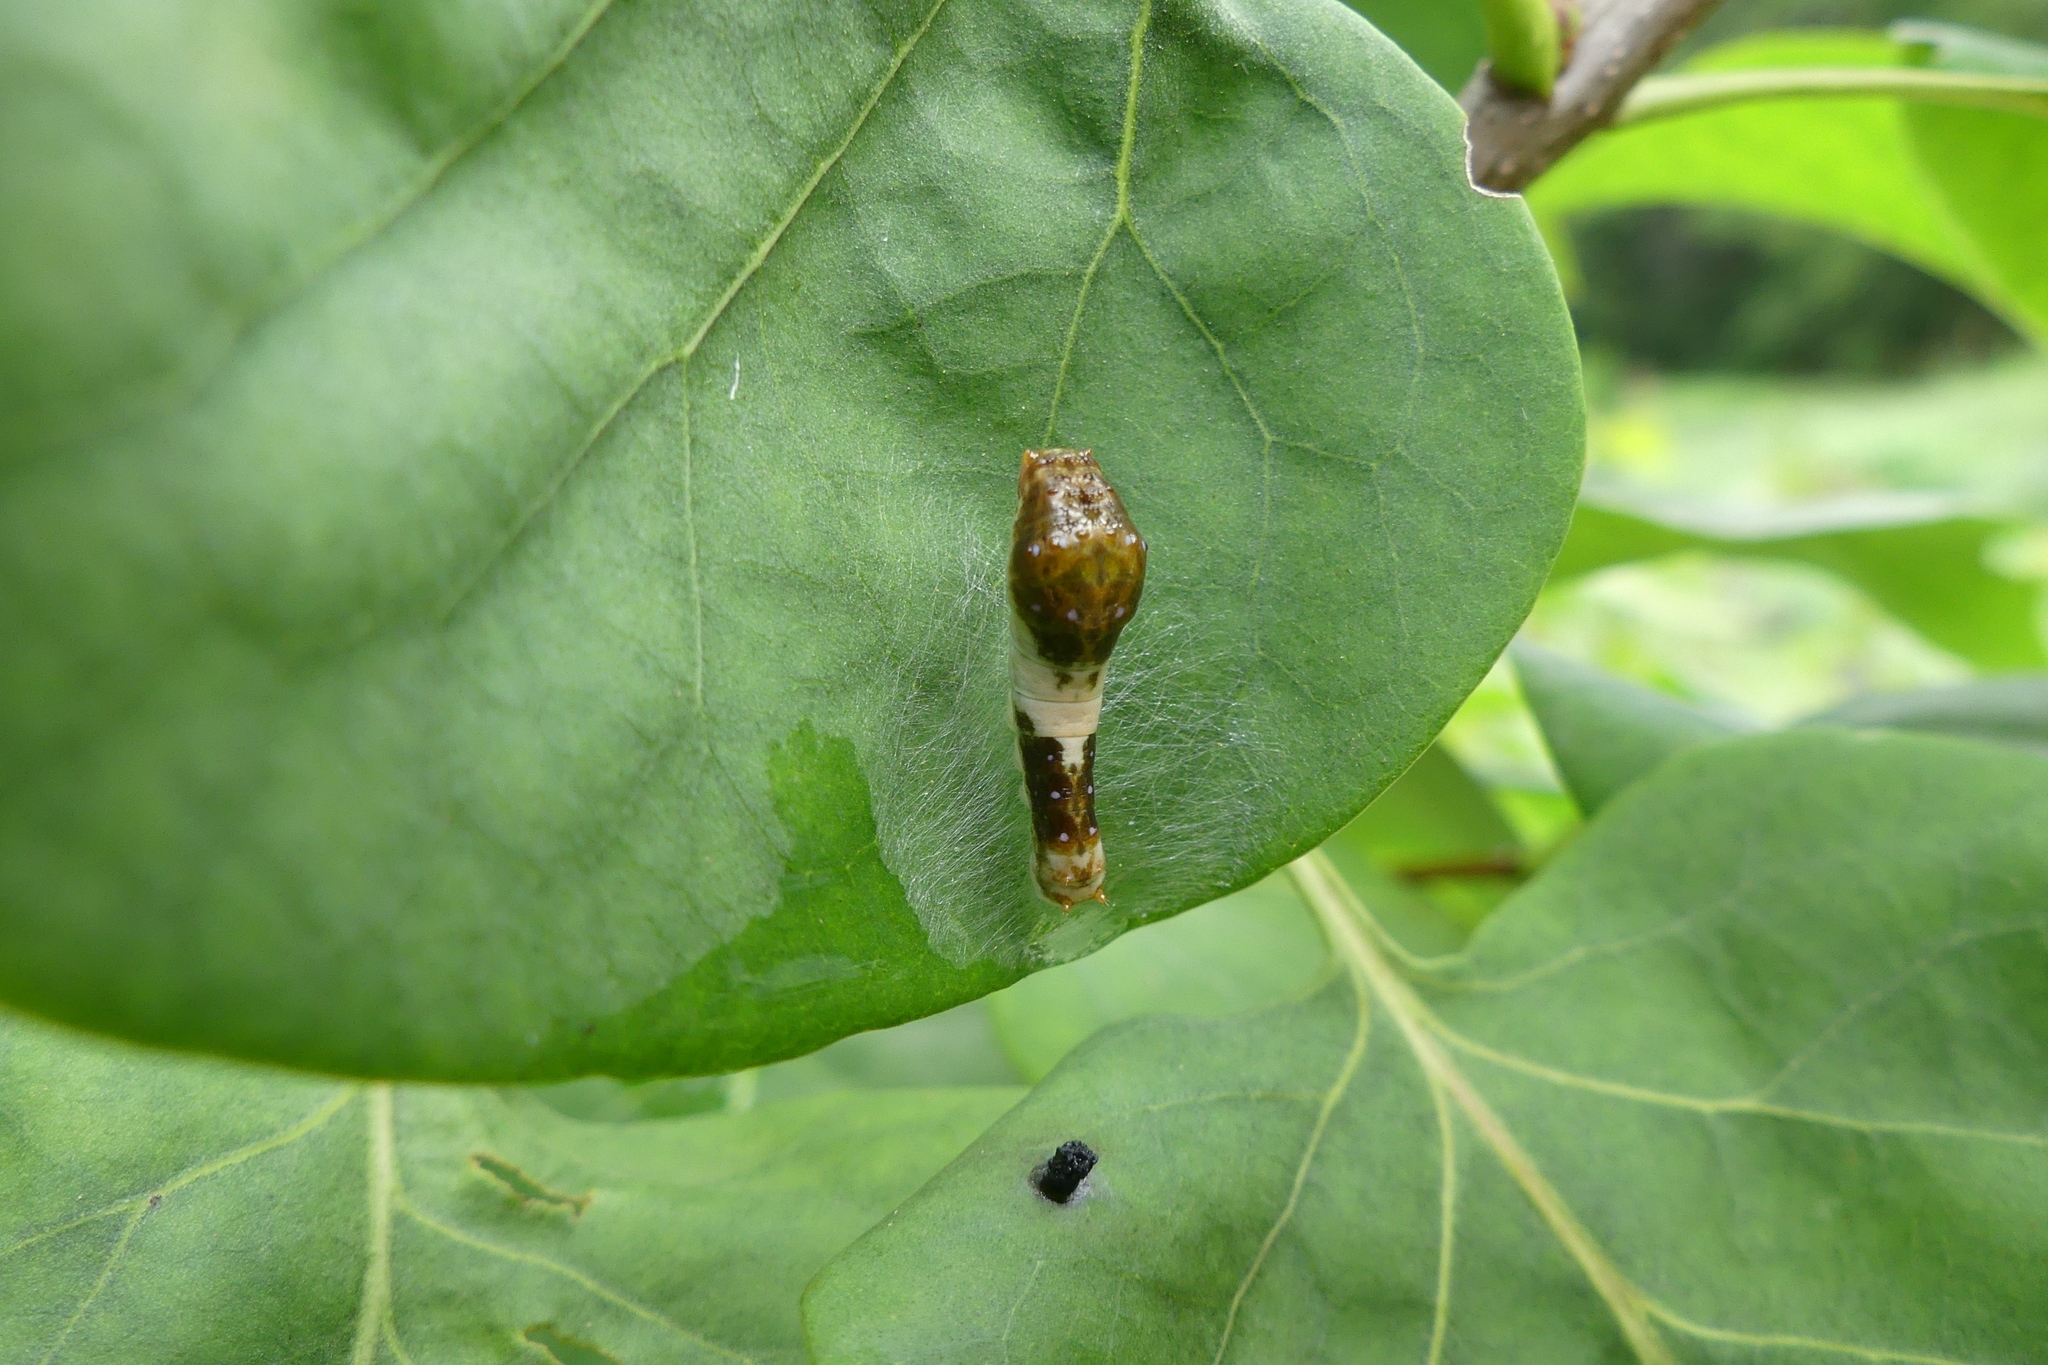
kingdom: Animalia
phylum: Arthropoda
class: Insecta
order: Lepidoptera
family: Papilionidae
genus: Papilio
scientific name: Papilio glaucus
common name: Tiger swallowtail
